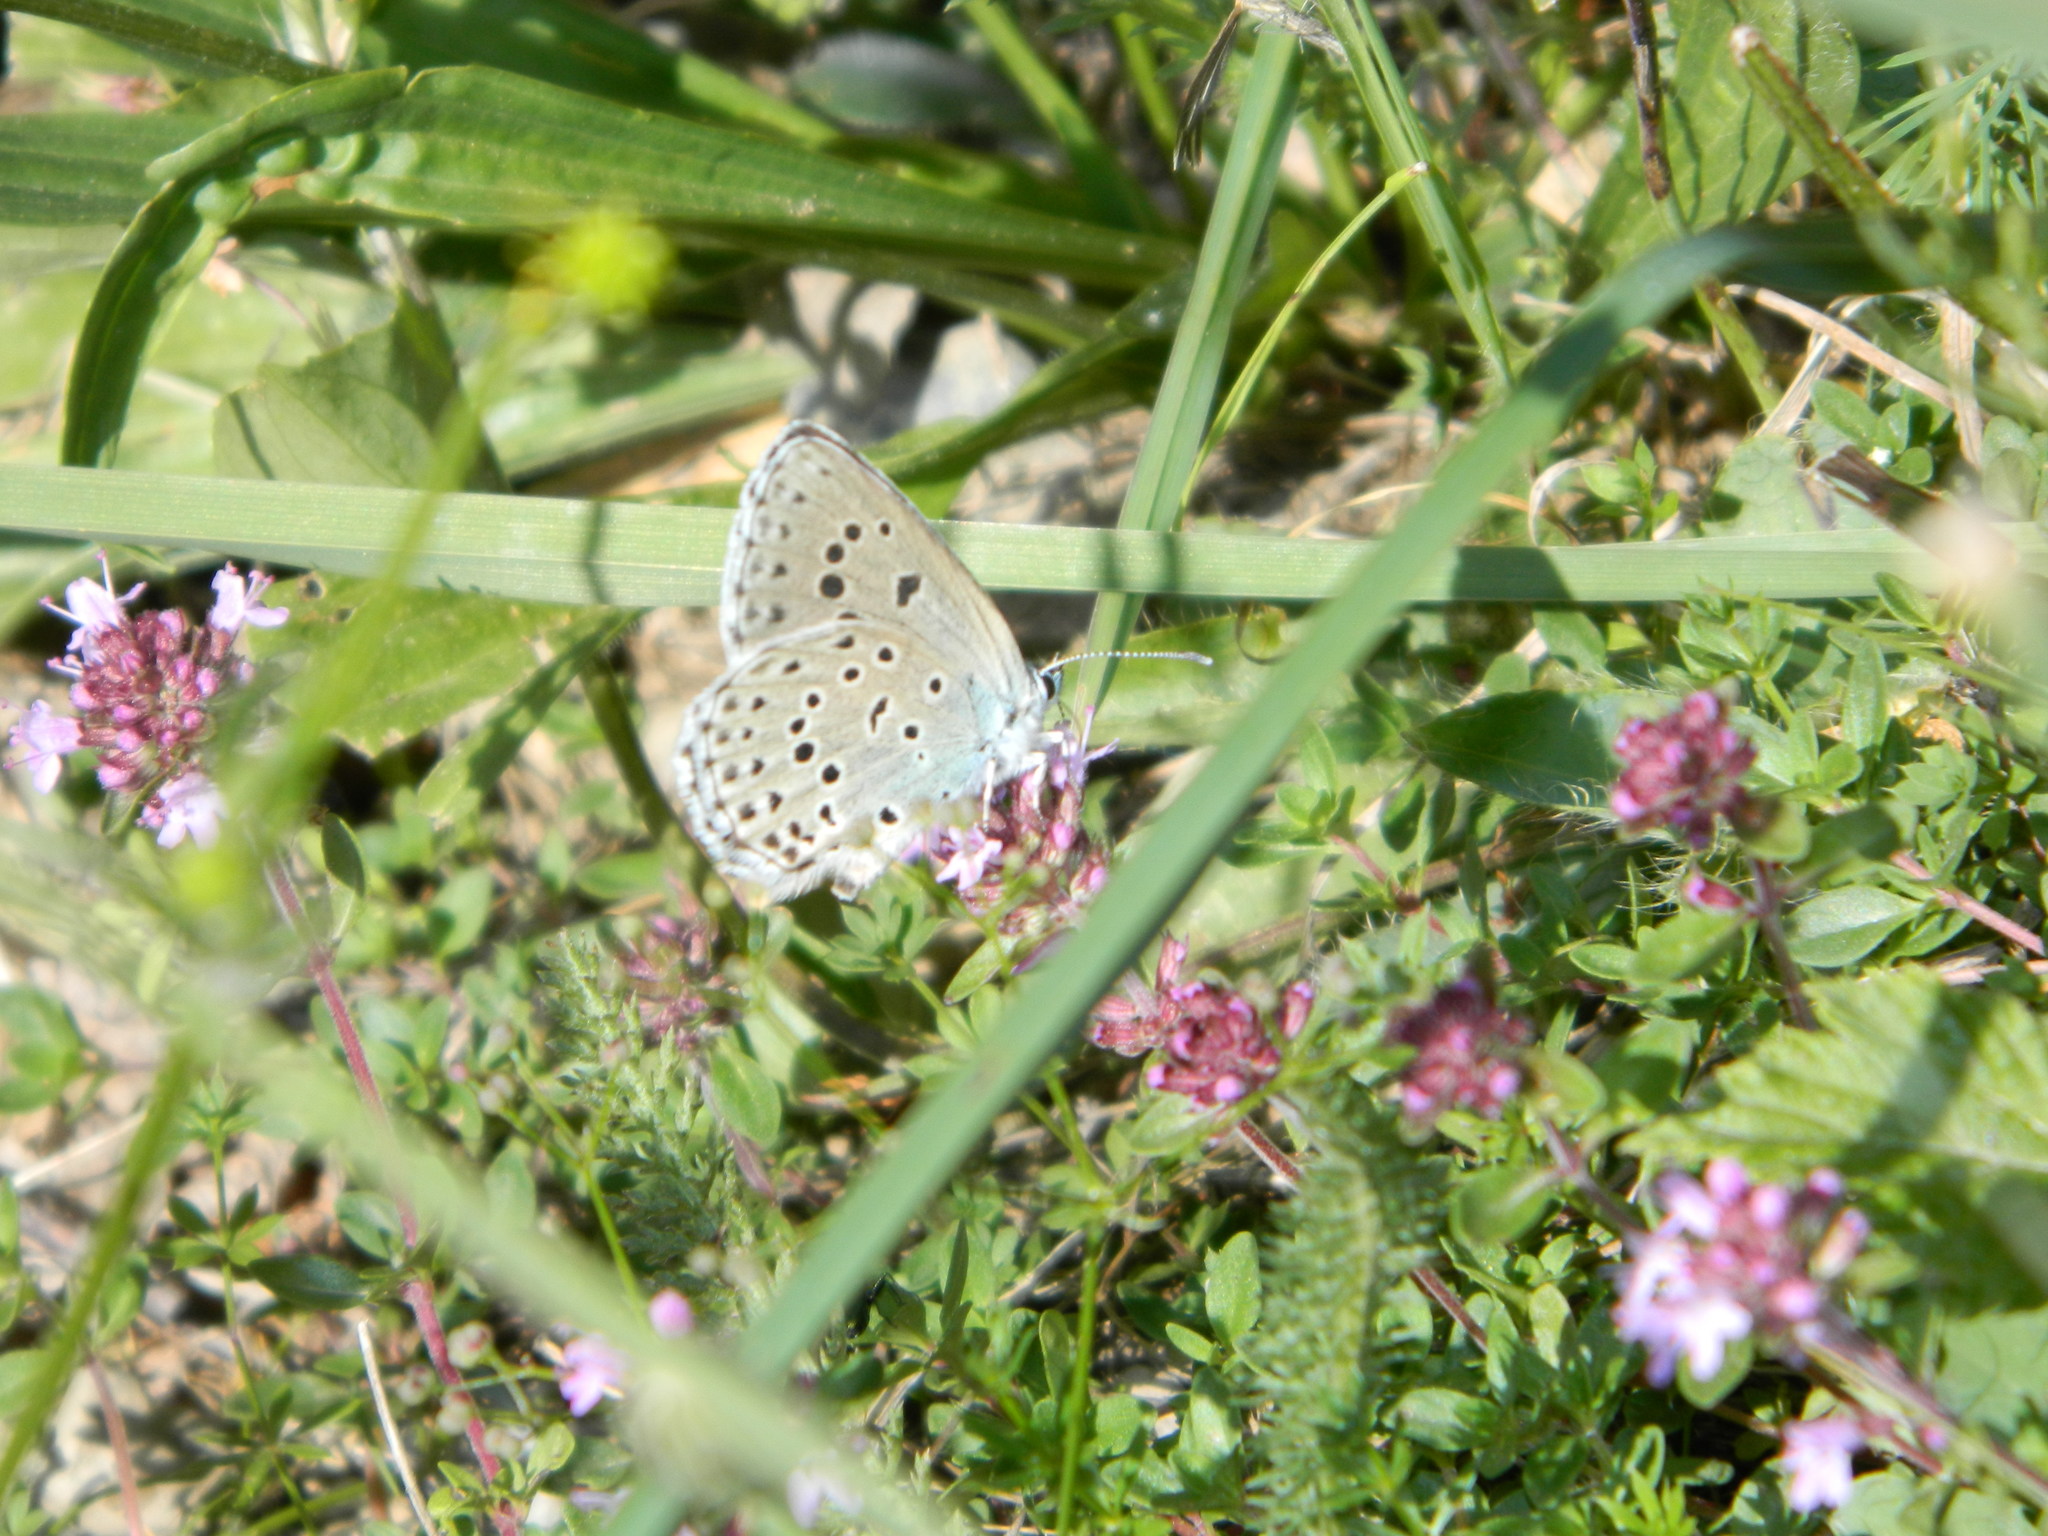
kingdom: Animalia
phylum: Arthropoda
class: Insecta
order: Lepidoptera
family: Lycaenidae
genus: Maculinea
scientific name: Maculinea arion
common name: Large blue
